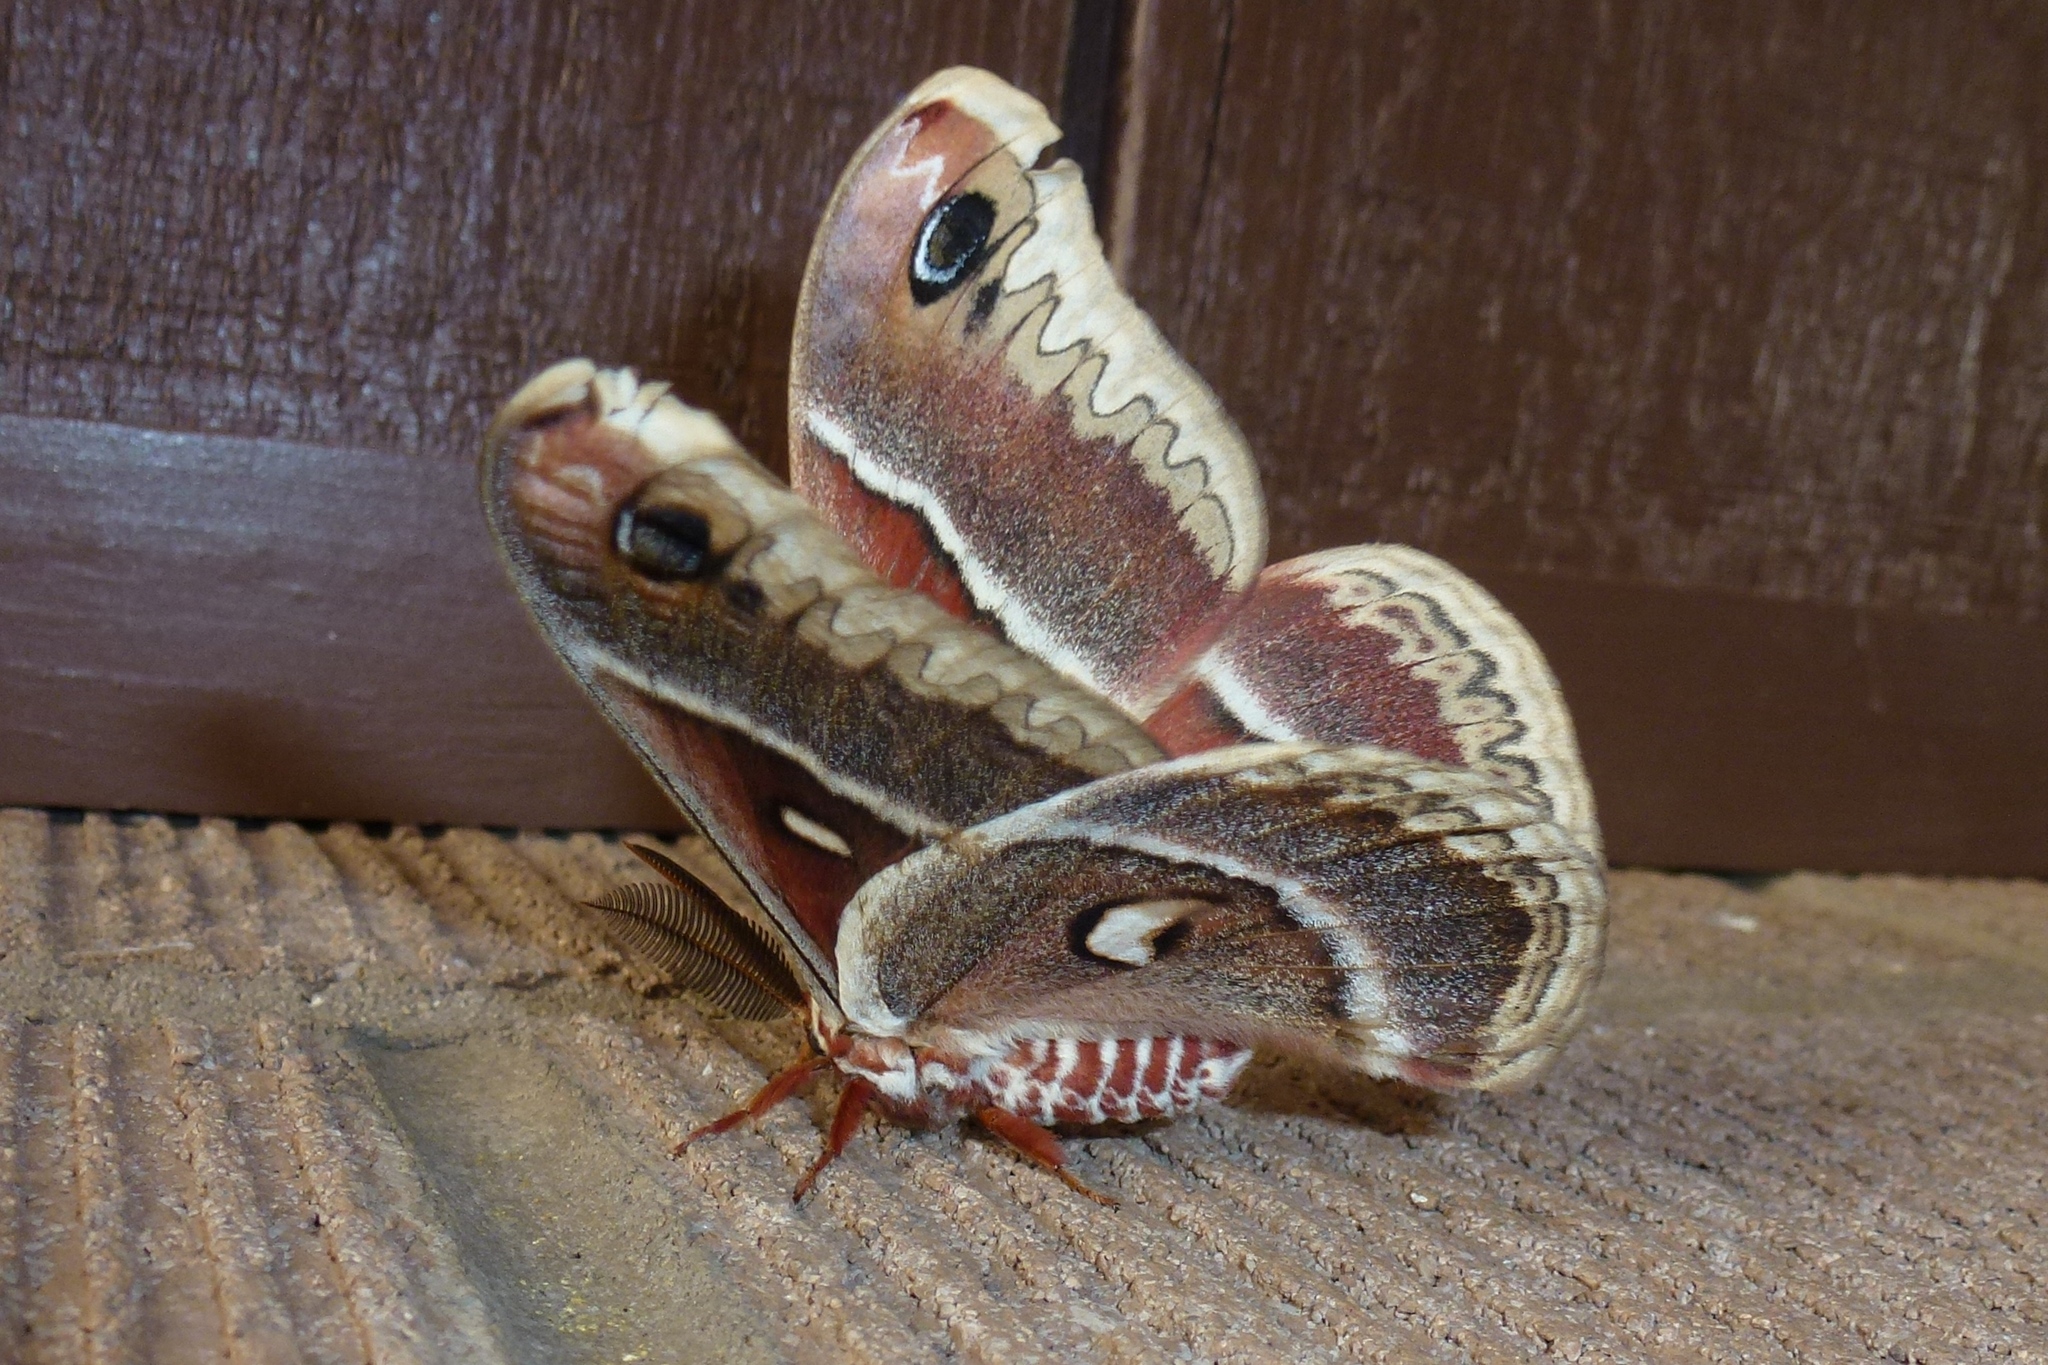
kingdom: Animalia
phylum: Arthropoda
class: Insecta
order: Lepidoptera
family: Saturniidae
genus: Hyalophora
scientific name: Hyalophora gloveri
